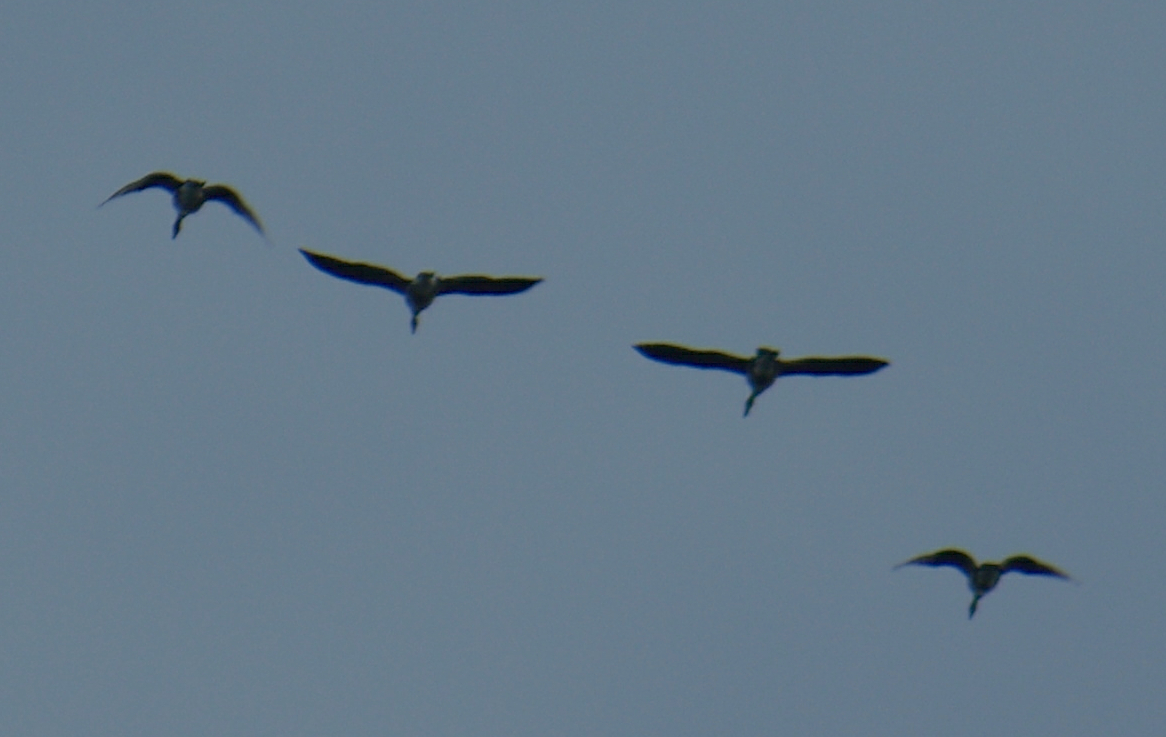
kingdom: Animalia
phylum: Chordata
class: Aves
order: Anseriformes
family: Anatidae
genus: Branta
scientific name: Branta canadensis
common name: Canada goose
